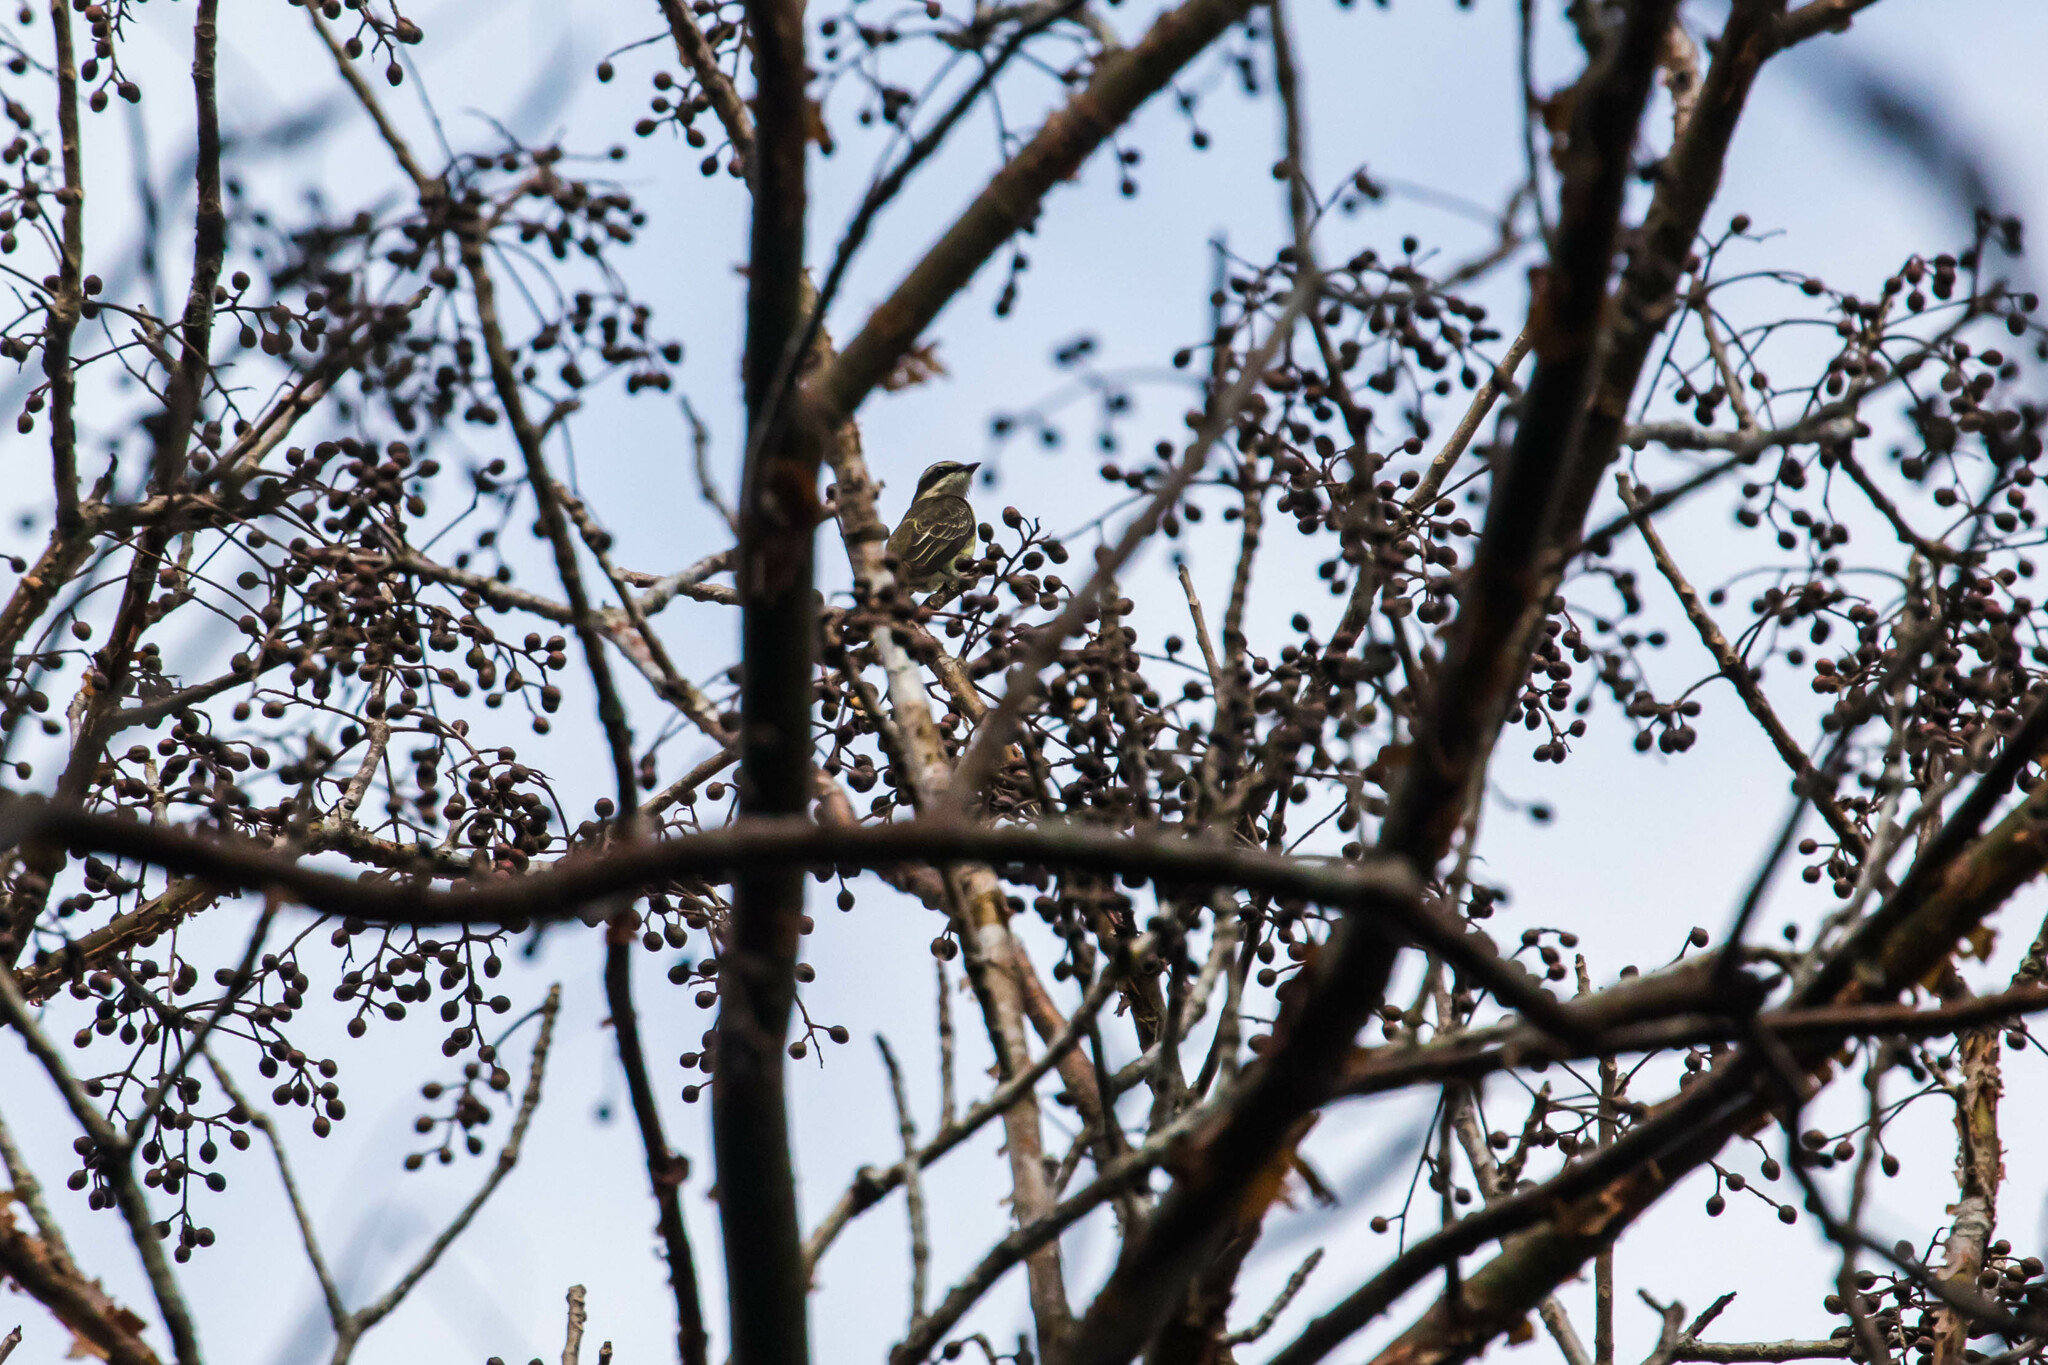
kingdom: Animalia
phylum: Chordata
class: Aves
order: Passeriformes
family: Tyrannidae
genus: Legatus
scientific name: Legatus leucophaius
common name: Piratic flycatcher
